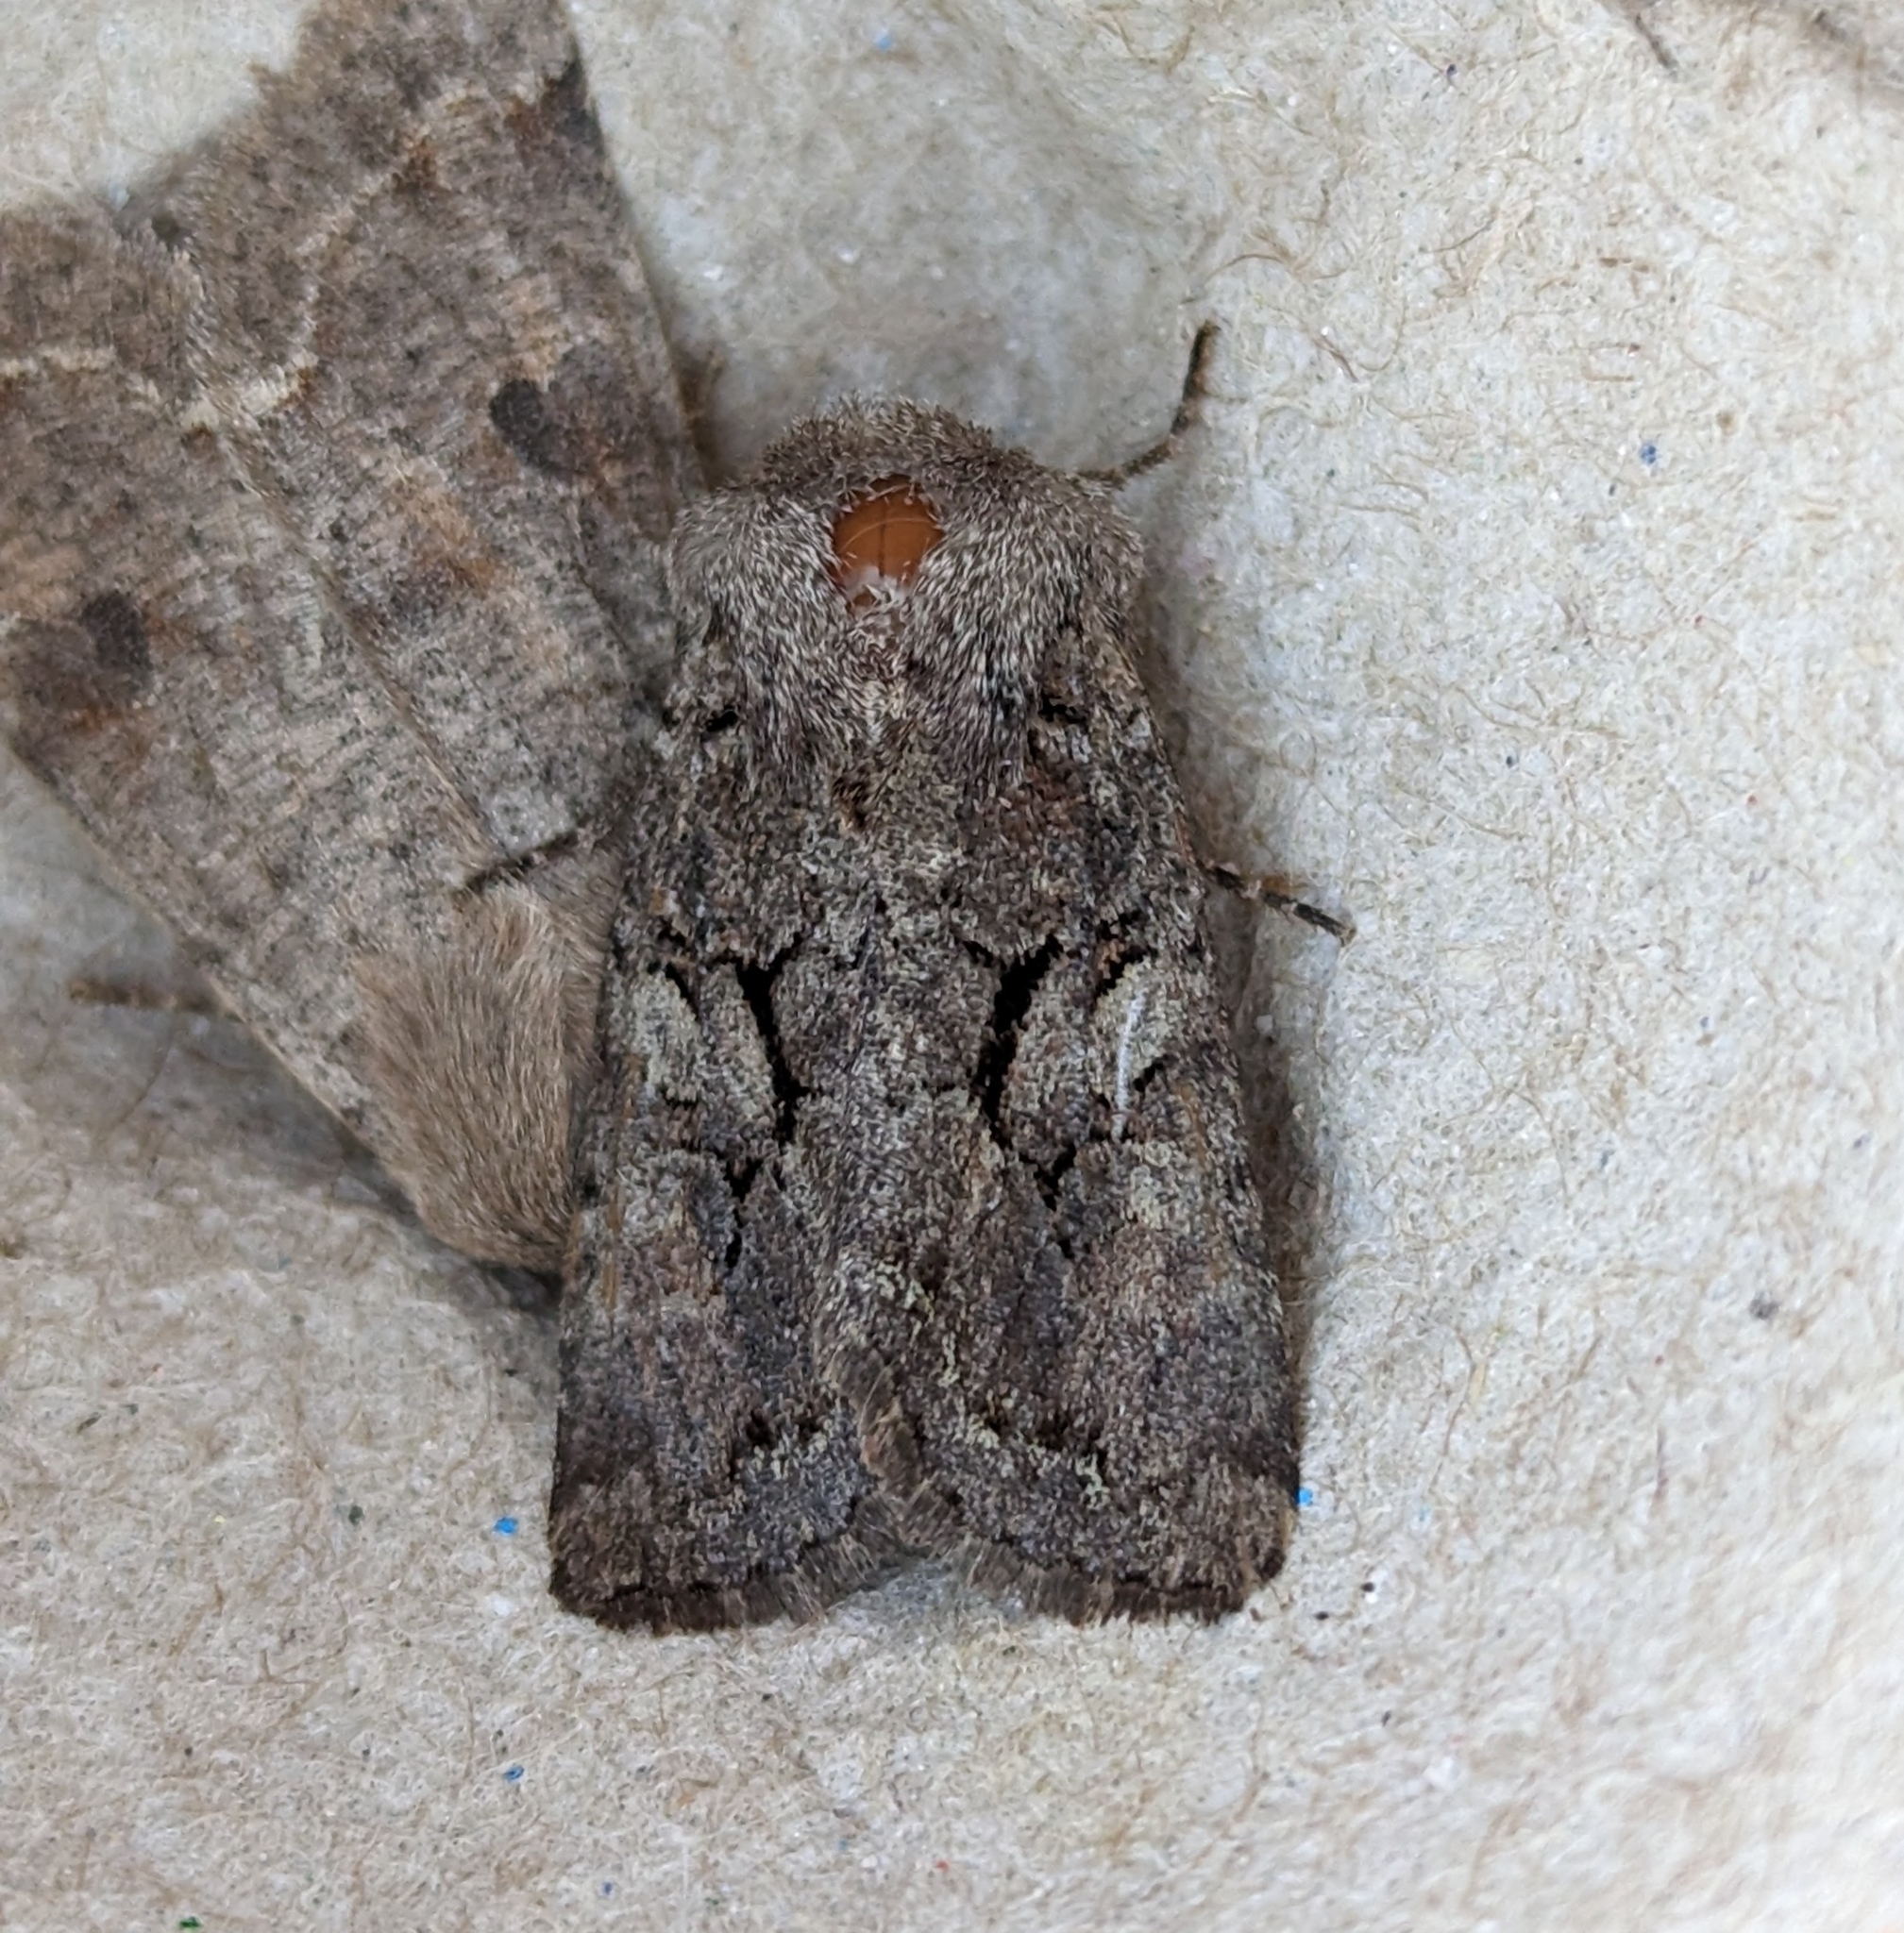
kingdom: Animalia
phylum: Arthropoda
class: Insecta
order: Lepidoptera
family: Noctuidae
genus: Orthosia
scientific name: Orthosia segregata
